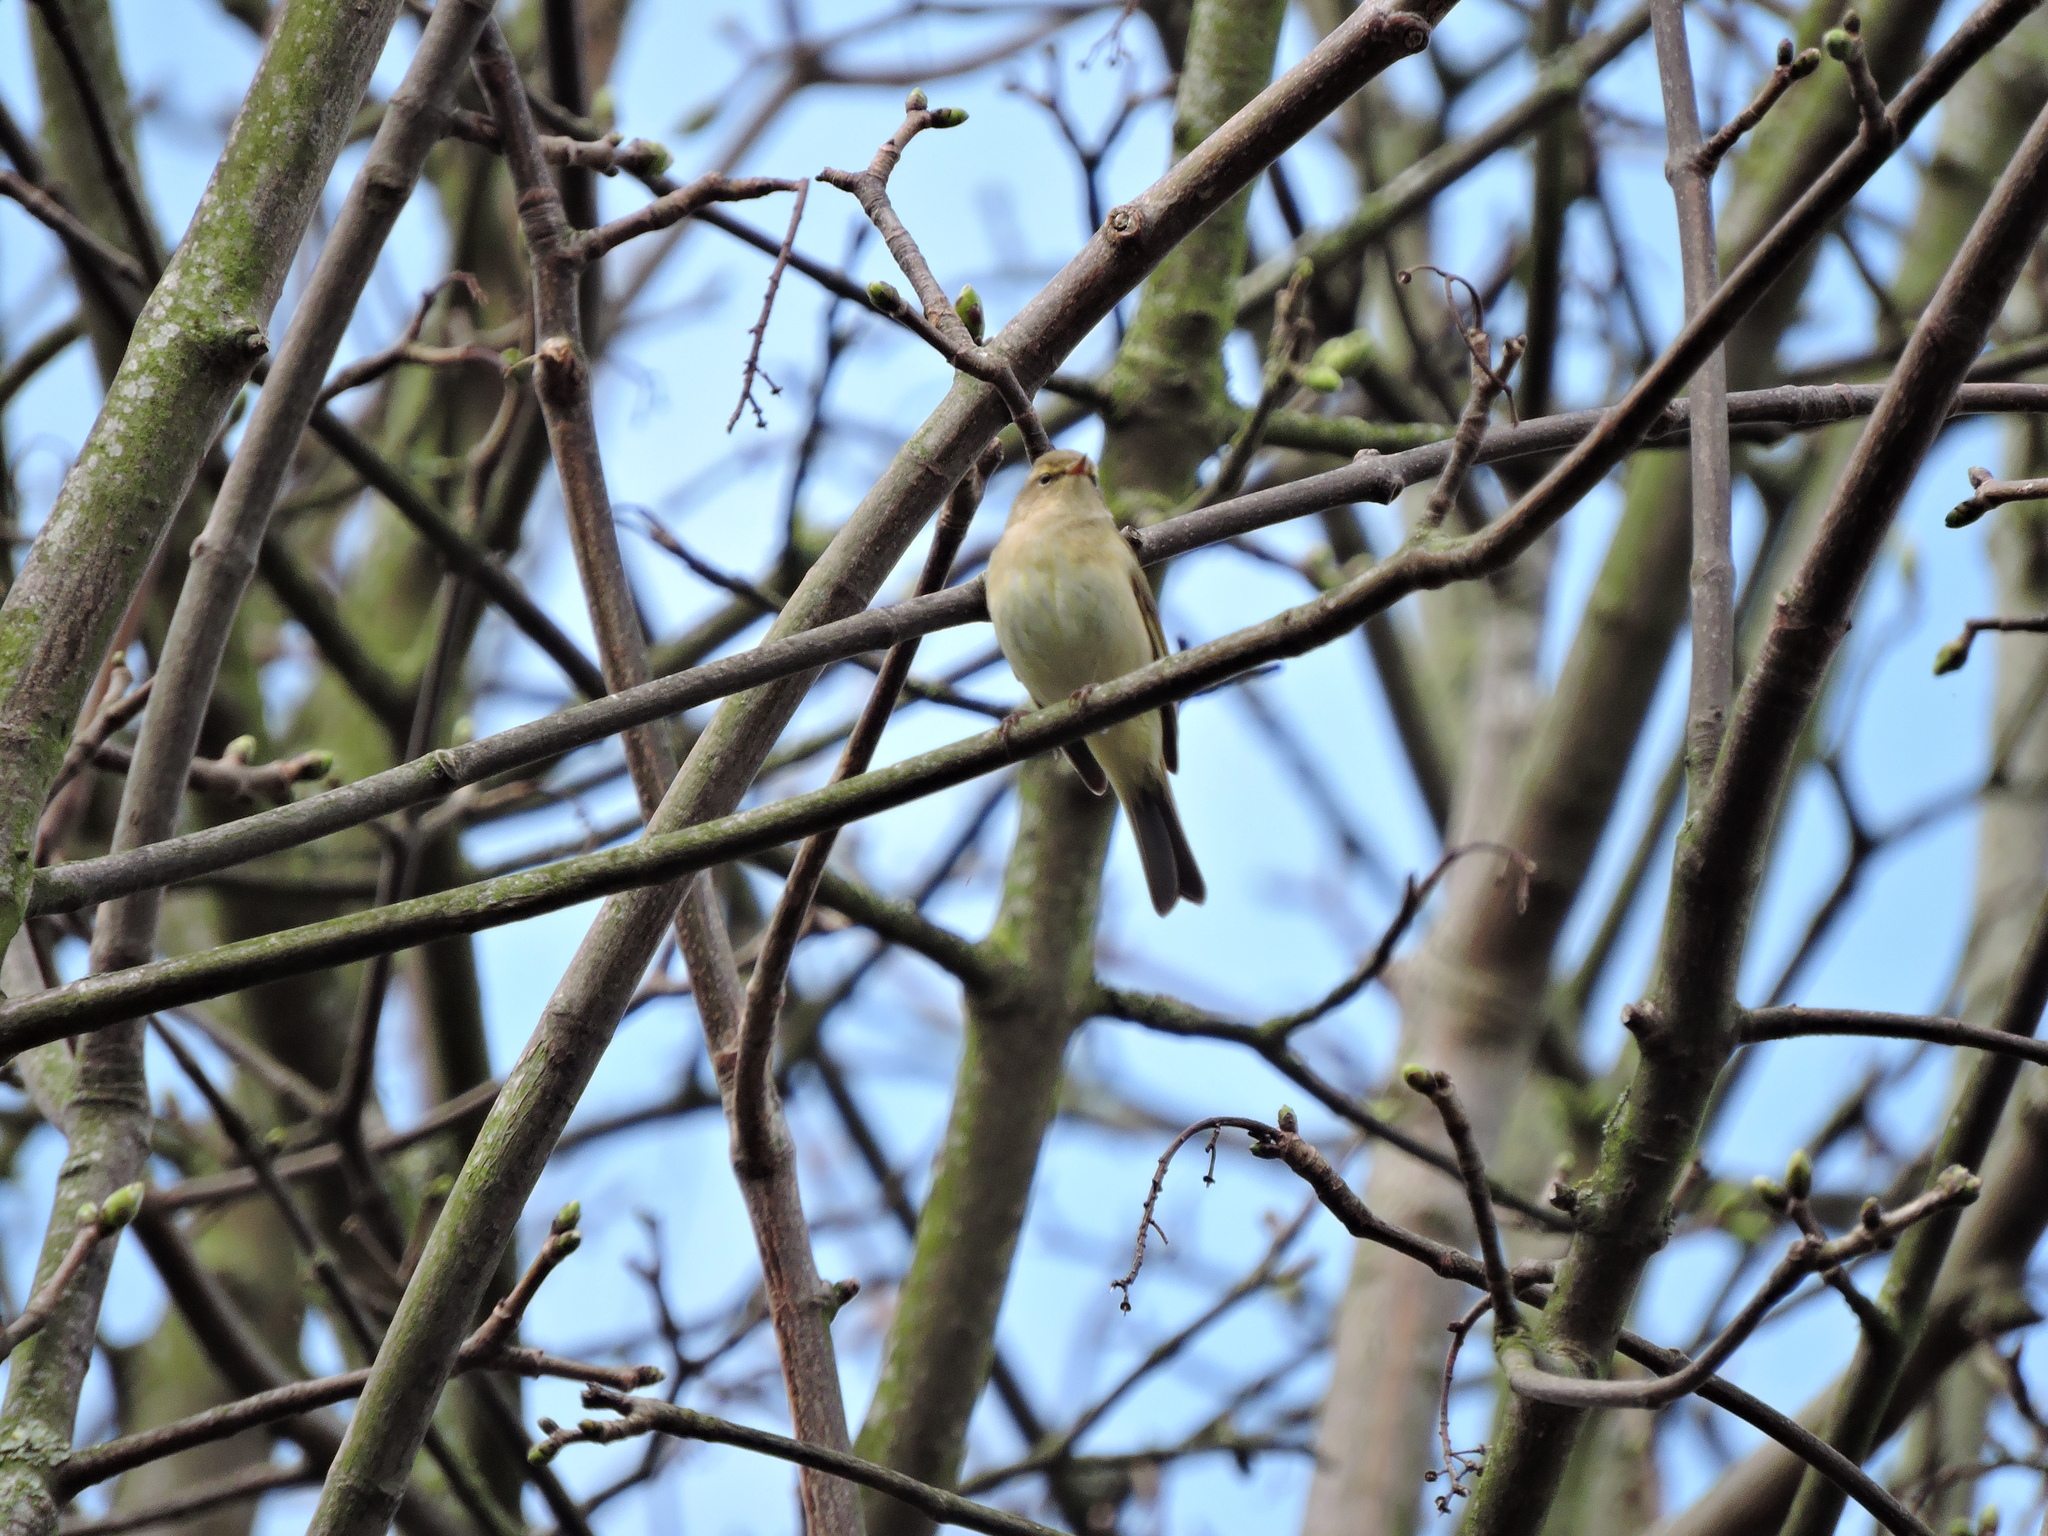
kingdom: Animalia
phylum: Chordata
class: Aves
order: Passeriformes
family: Phylloscopidae
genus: Phylloscopus
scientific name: Phylloscopus collybita
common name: Common chiffchaff
